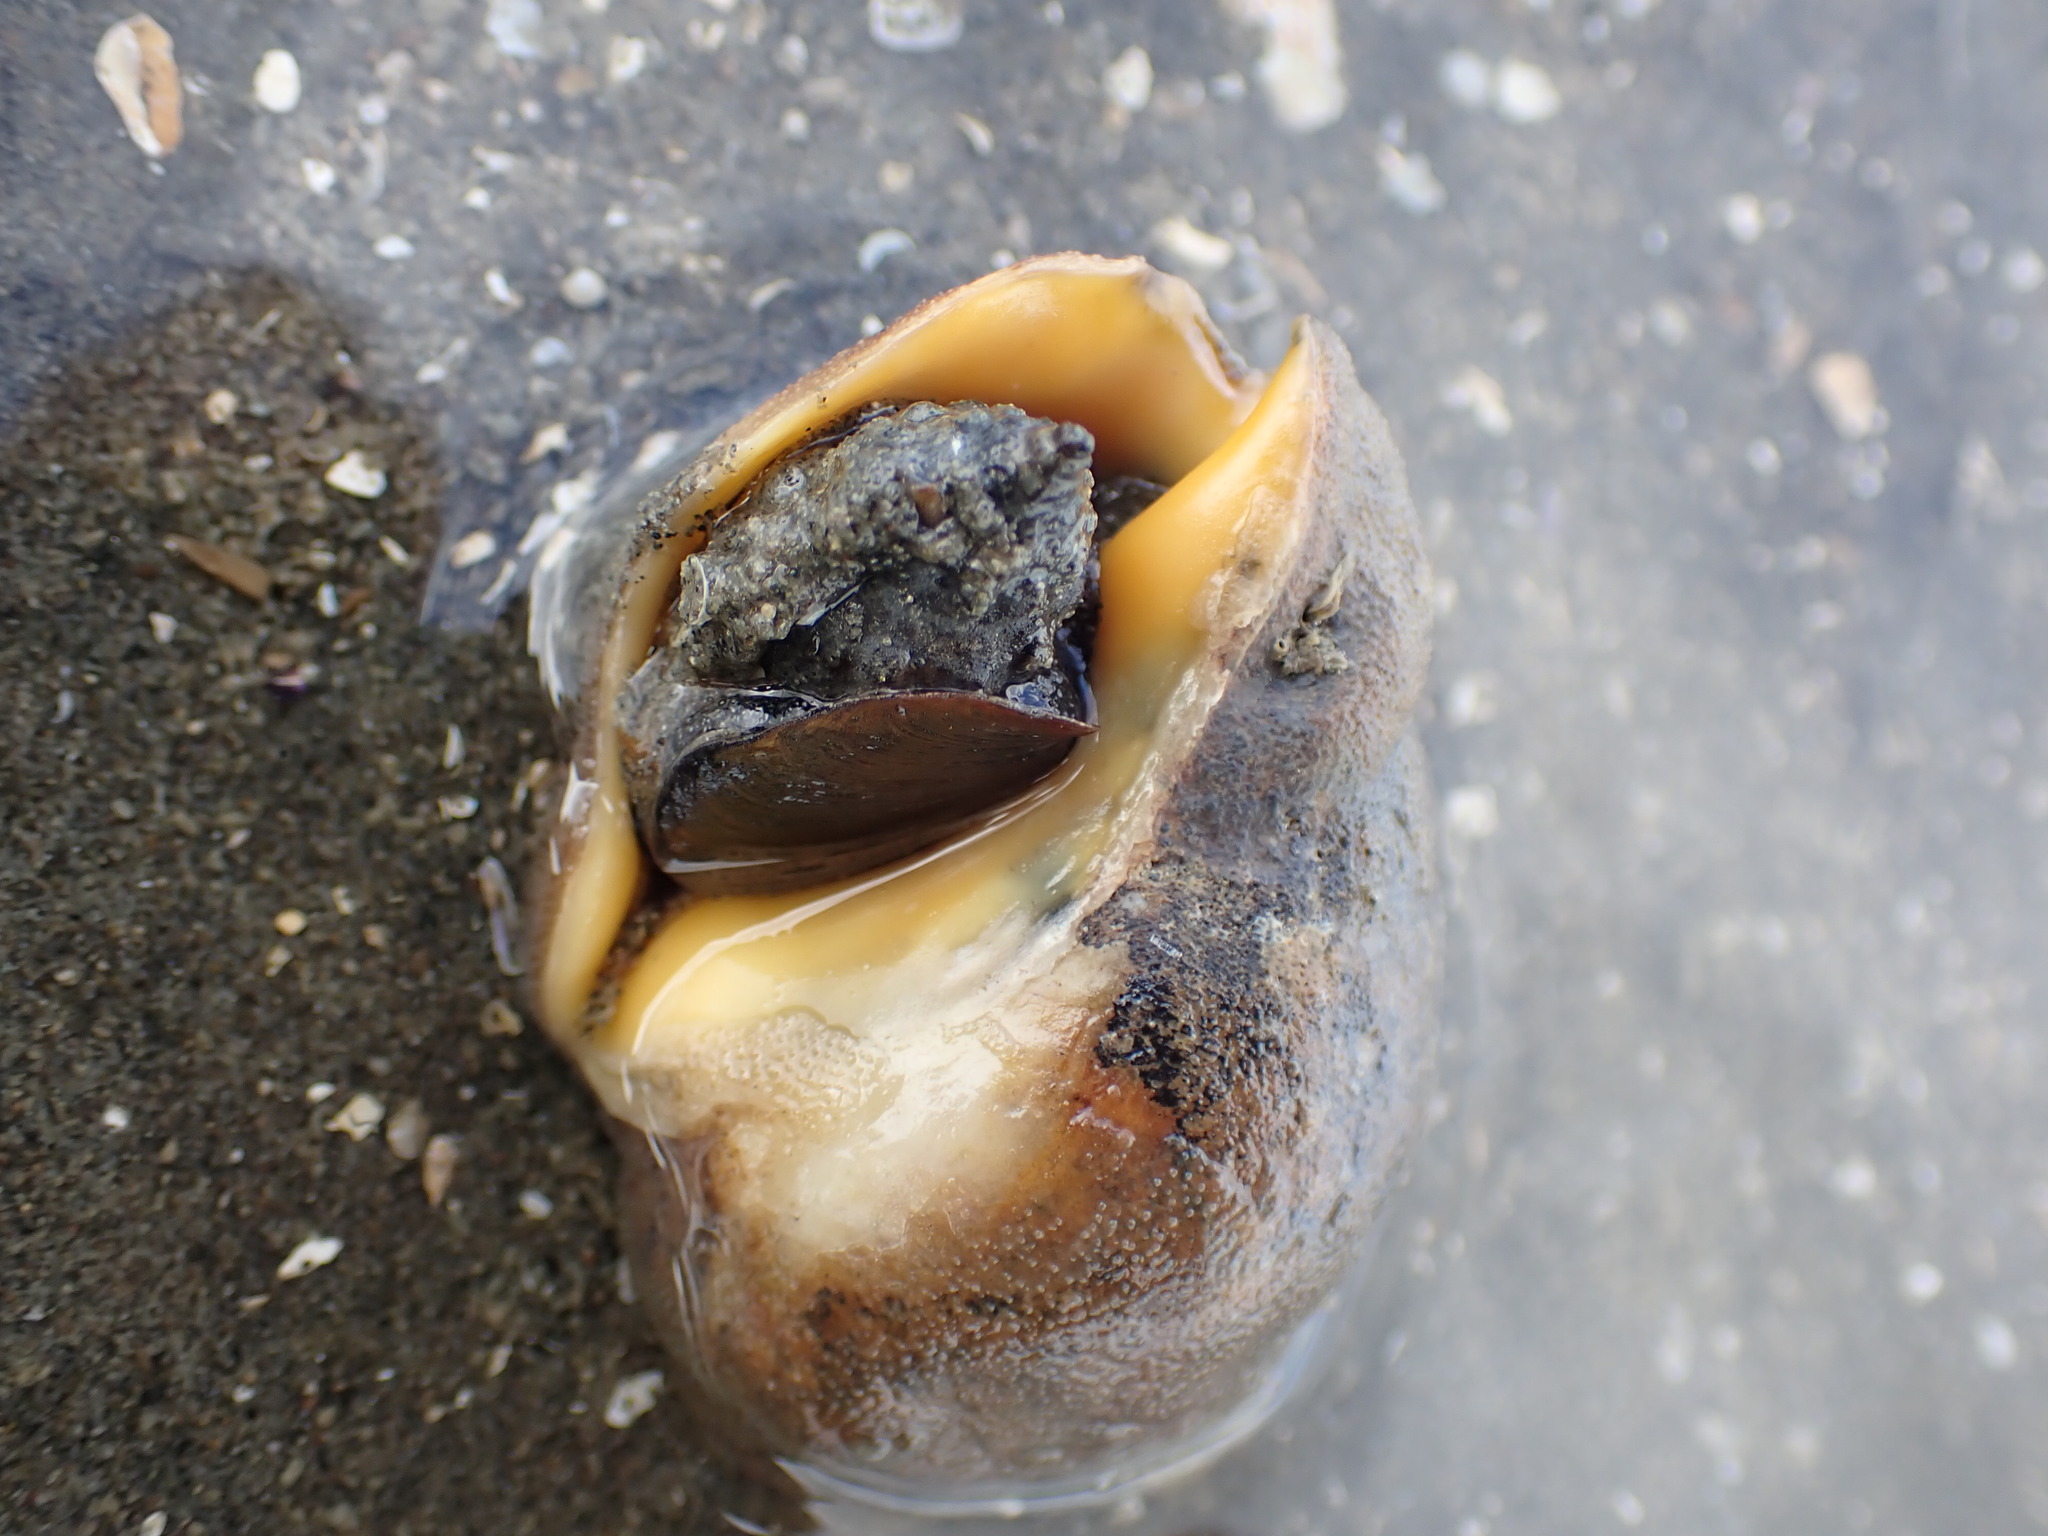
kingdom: Animalia
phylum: Mollusca
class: Gastropoda
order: Neogastropoda
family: Cominellidae
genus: Cominella
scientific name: Cominella adspersa
